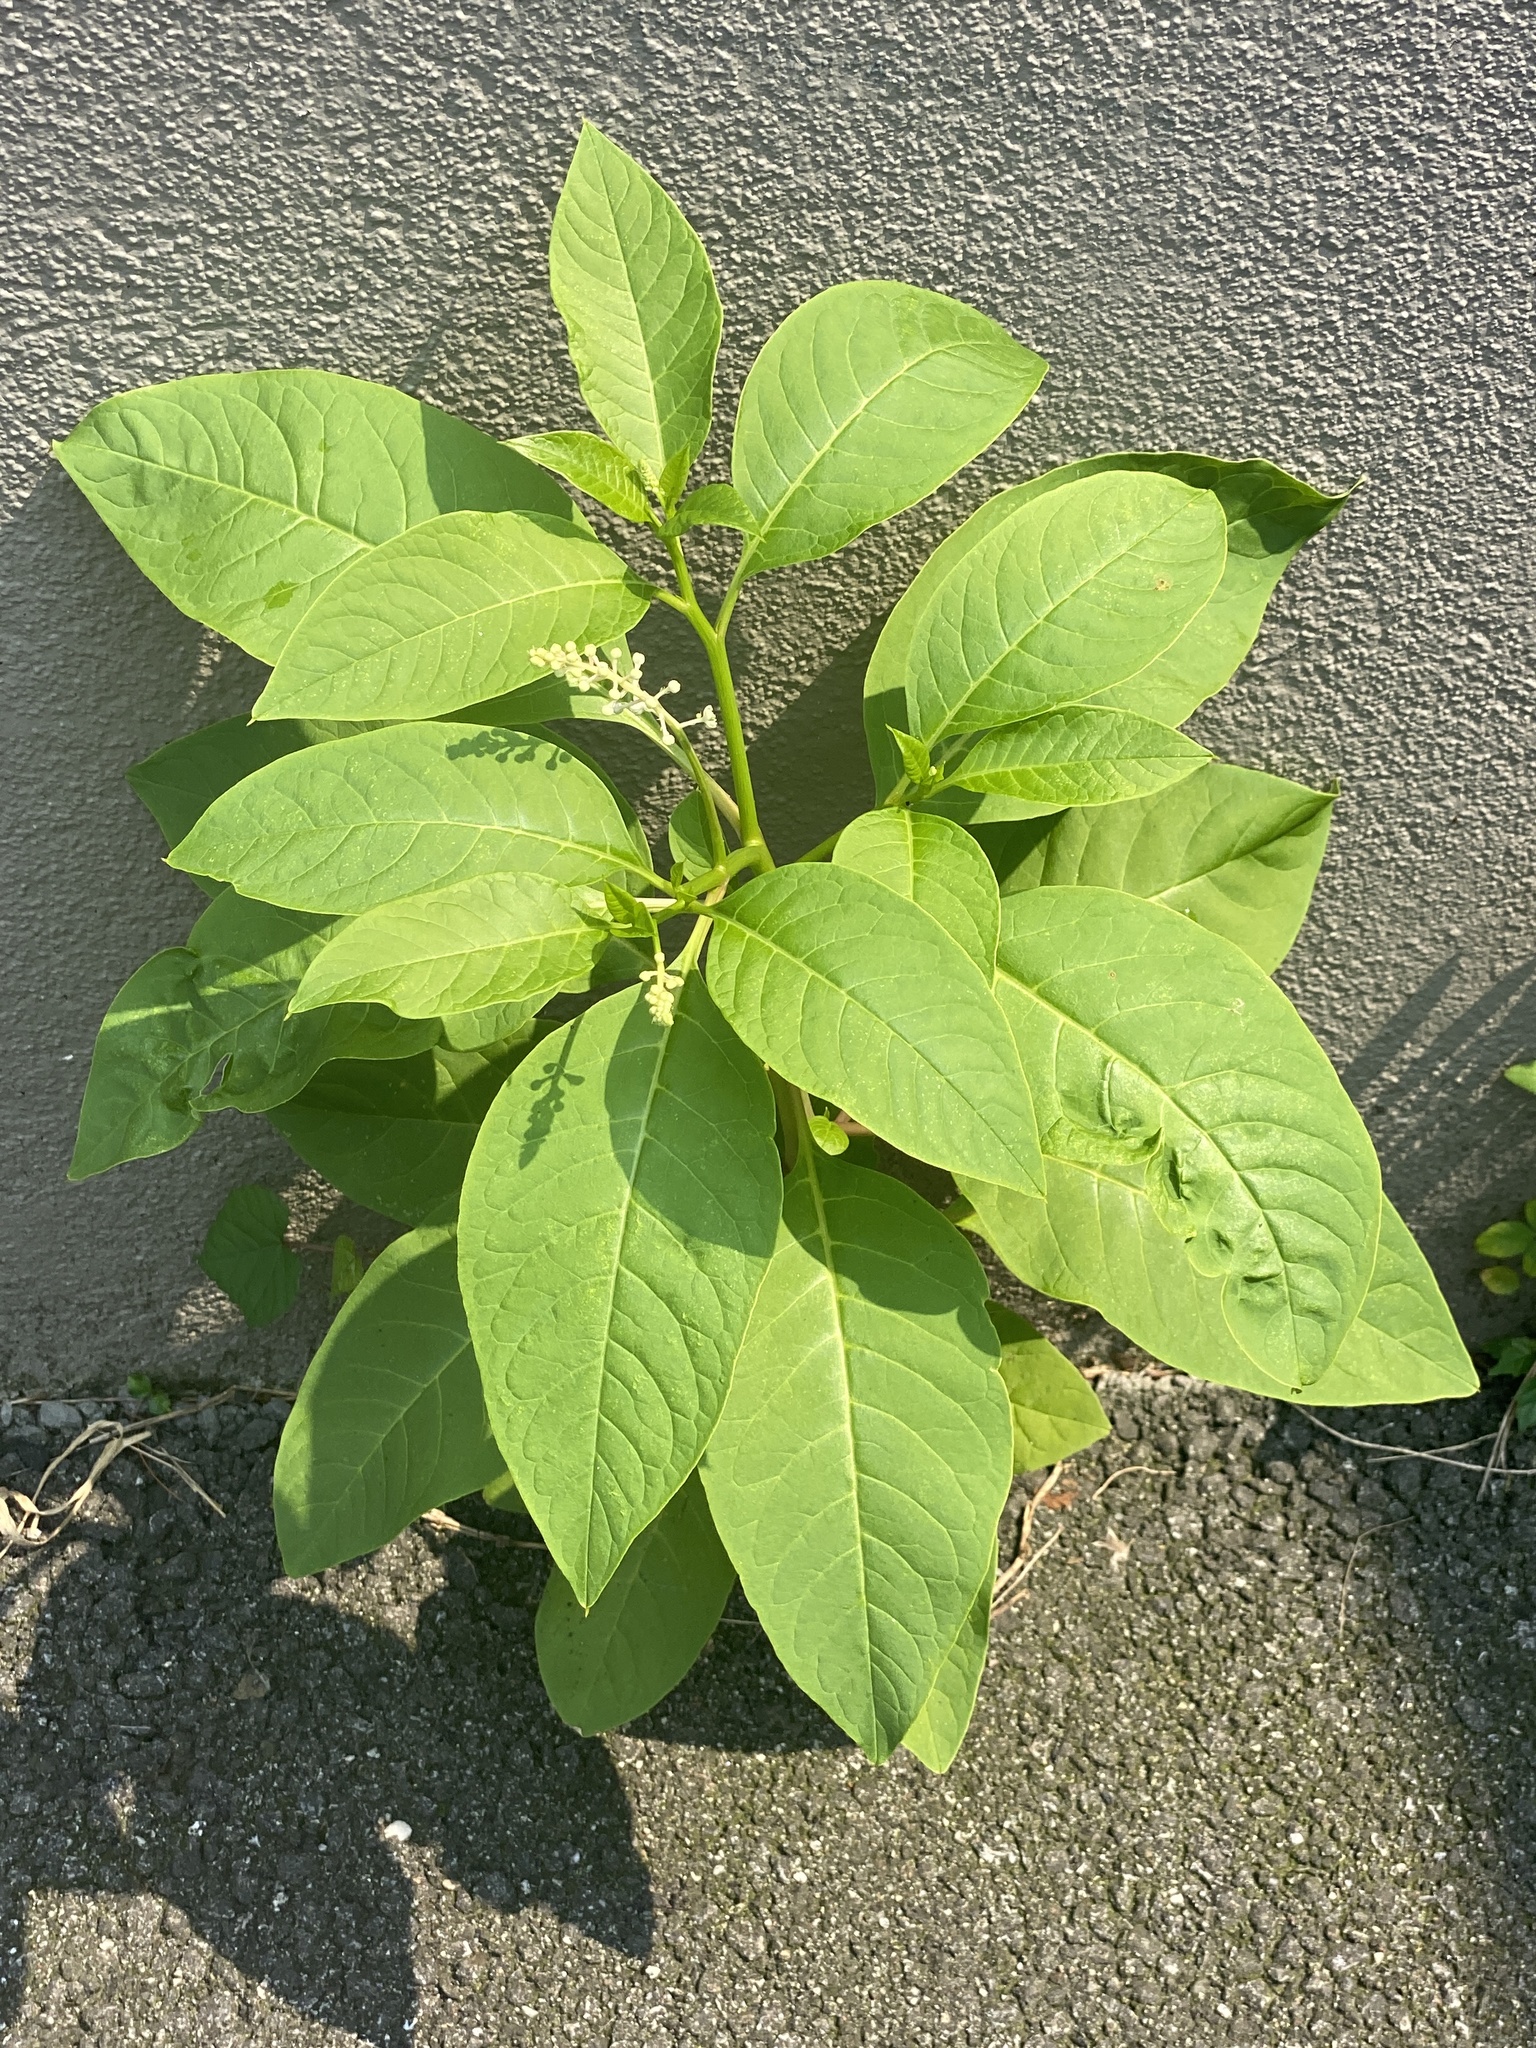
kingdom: Plantae
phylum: Tracheophyta
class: Magnoliopsida
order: Caryophyllales
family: Phytolaccaceae
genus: Phytolacca
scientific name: Phytolacca americana
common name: American pokeweed
